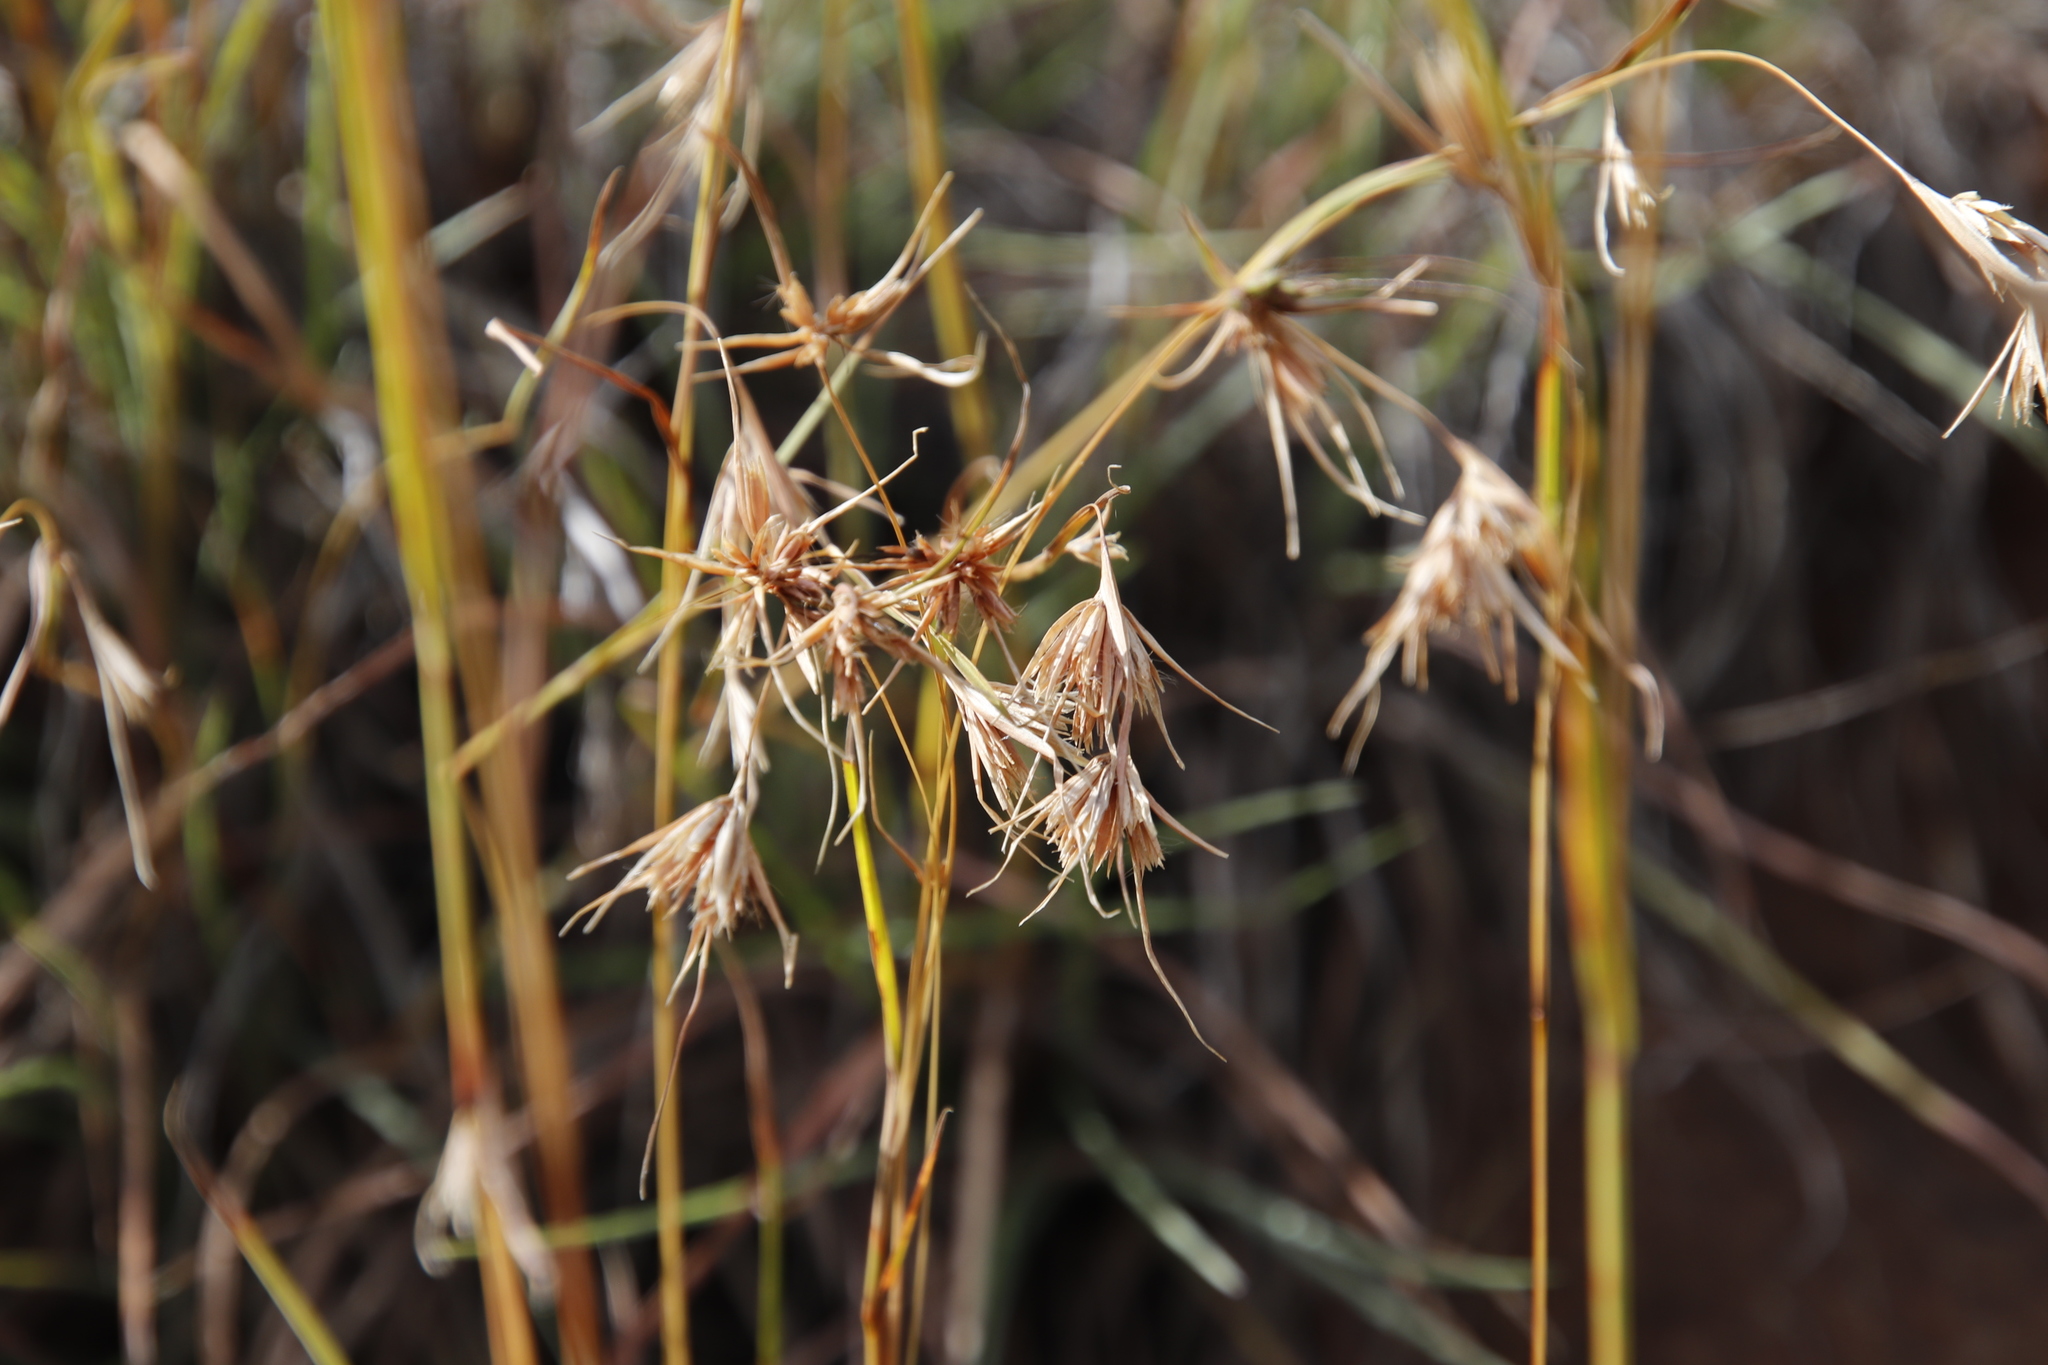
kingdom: Plantae
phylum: Tracheophyta
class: Liliopsida
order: Poales
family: Poaceae
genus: Themeda
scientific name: Themeda triandra
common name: Kangaroo grass
